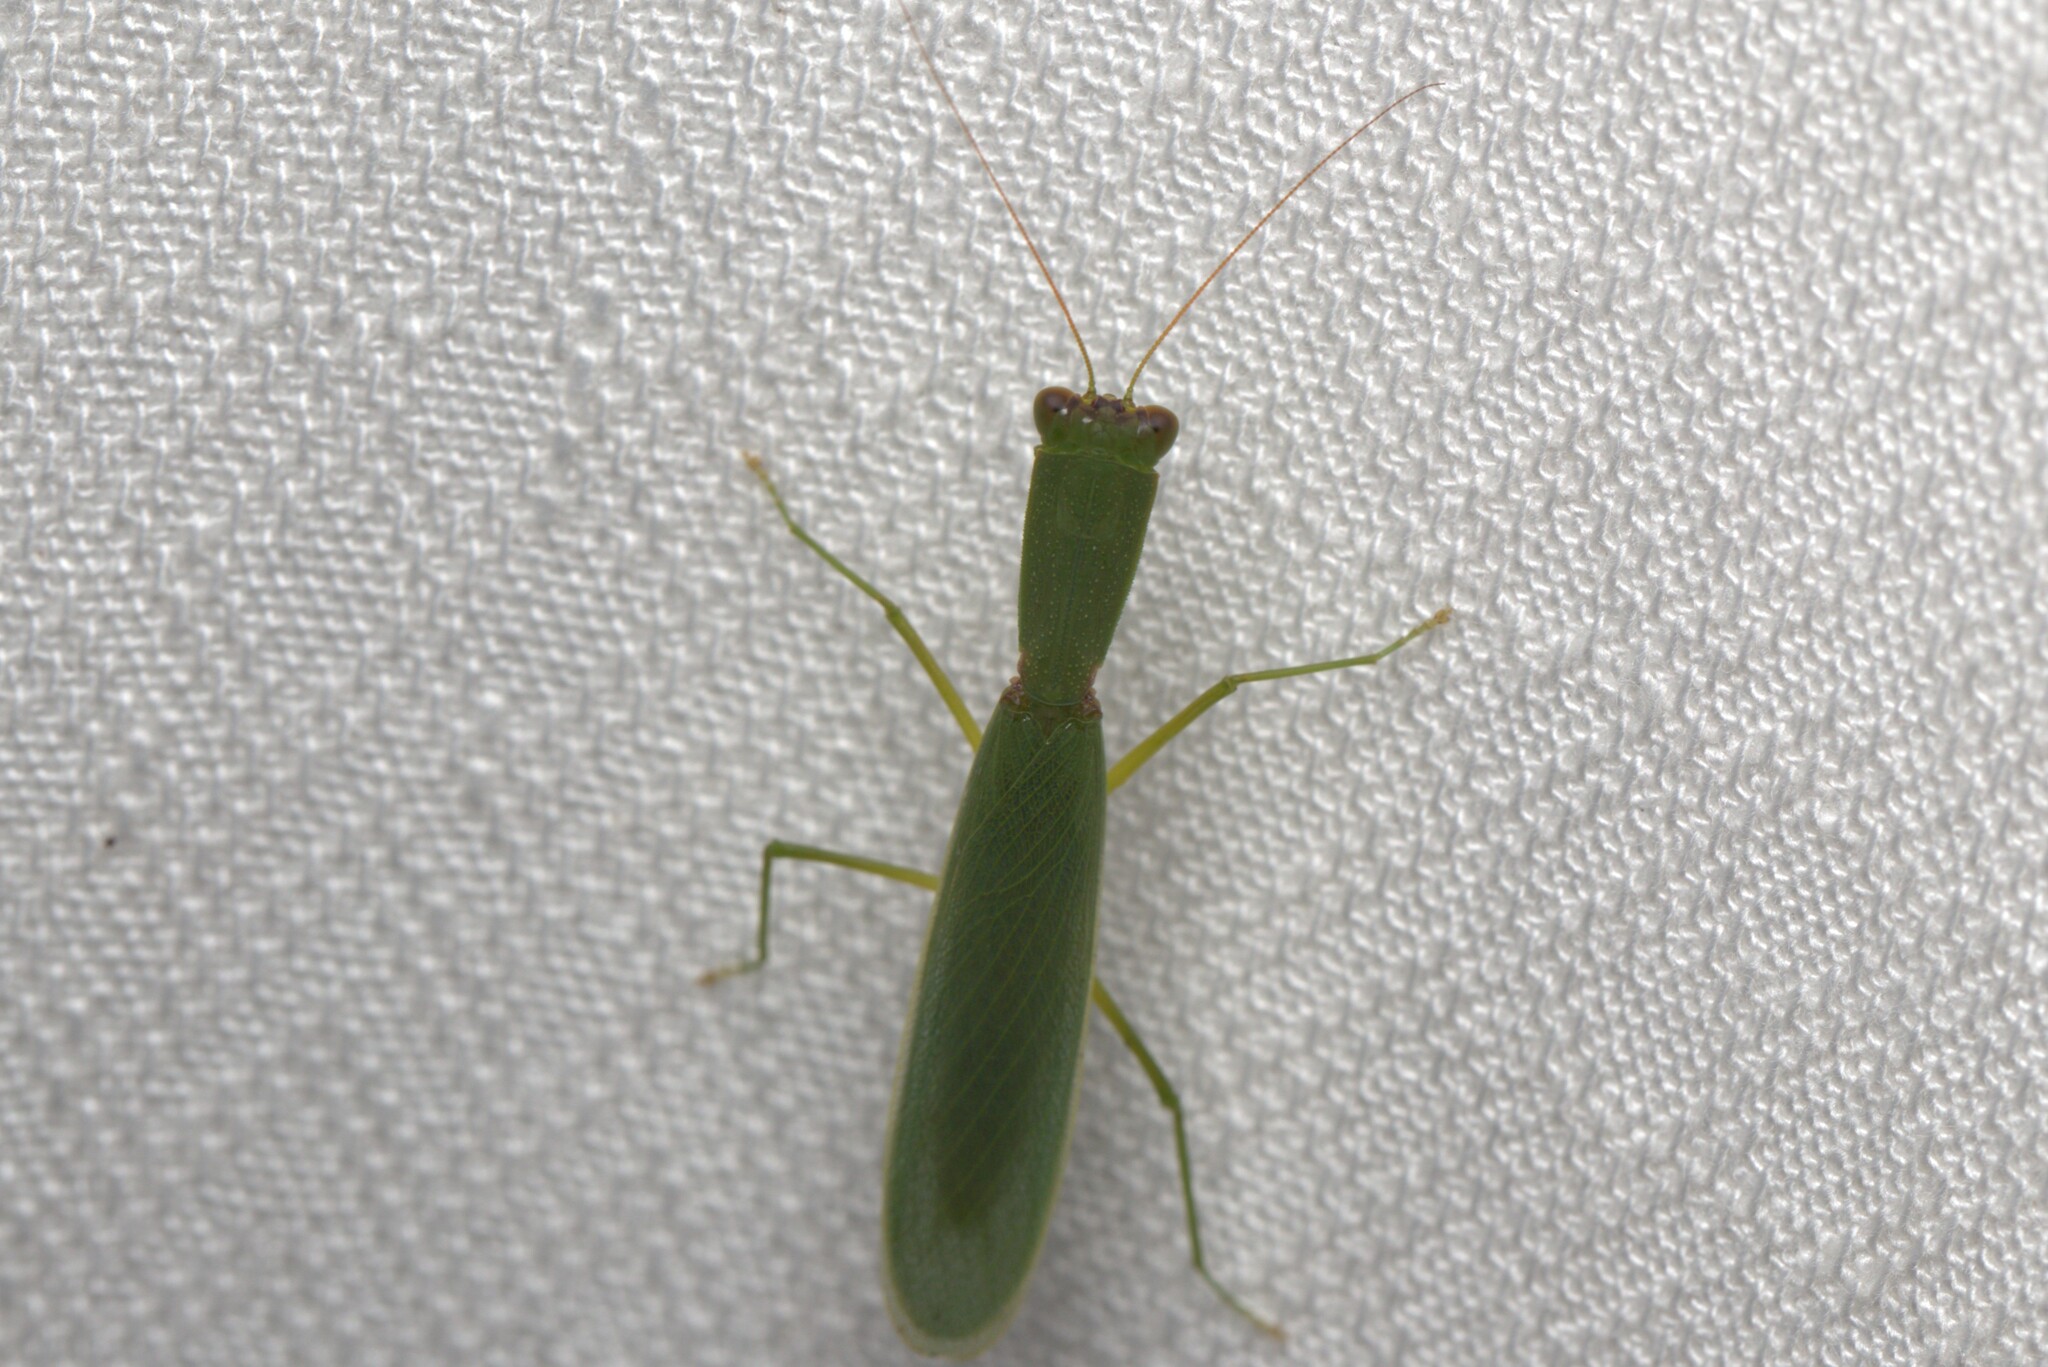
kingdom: Animalia
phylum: Arthropoda
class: Insecta
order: Mantodea
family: Mantidae
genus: Orthodera
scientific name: Orthodera ministralis
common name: Mantis
